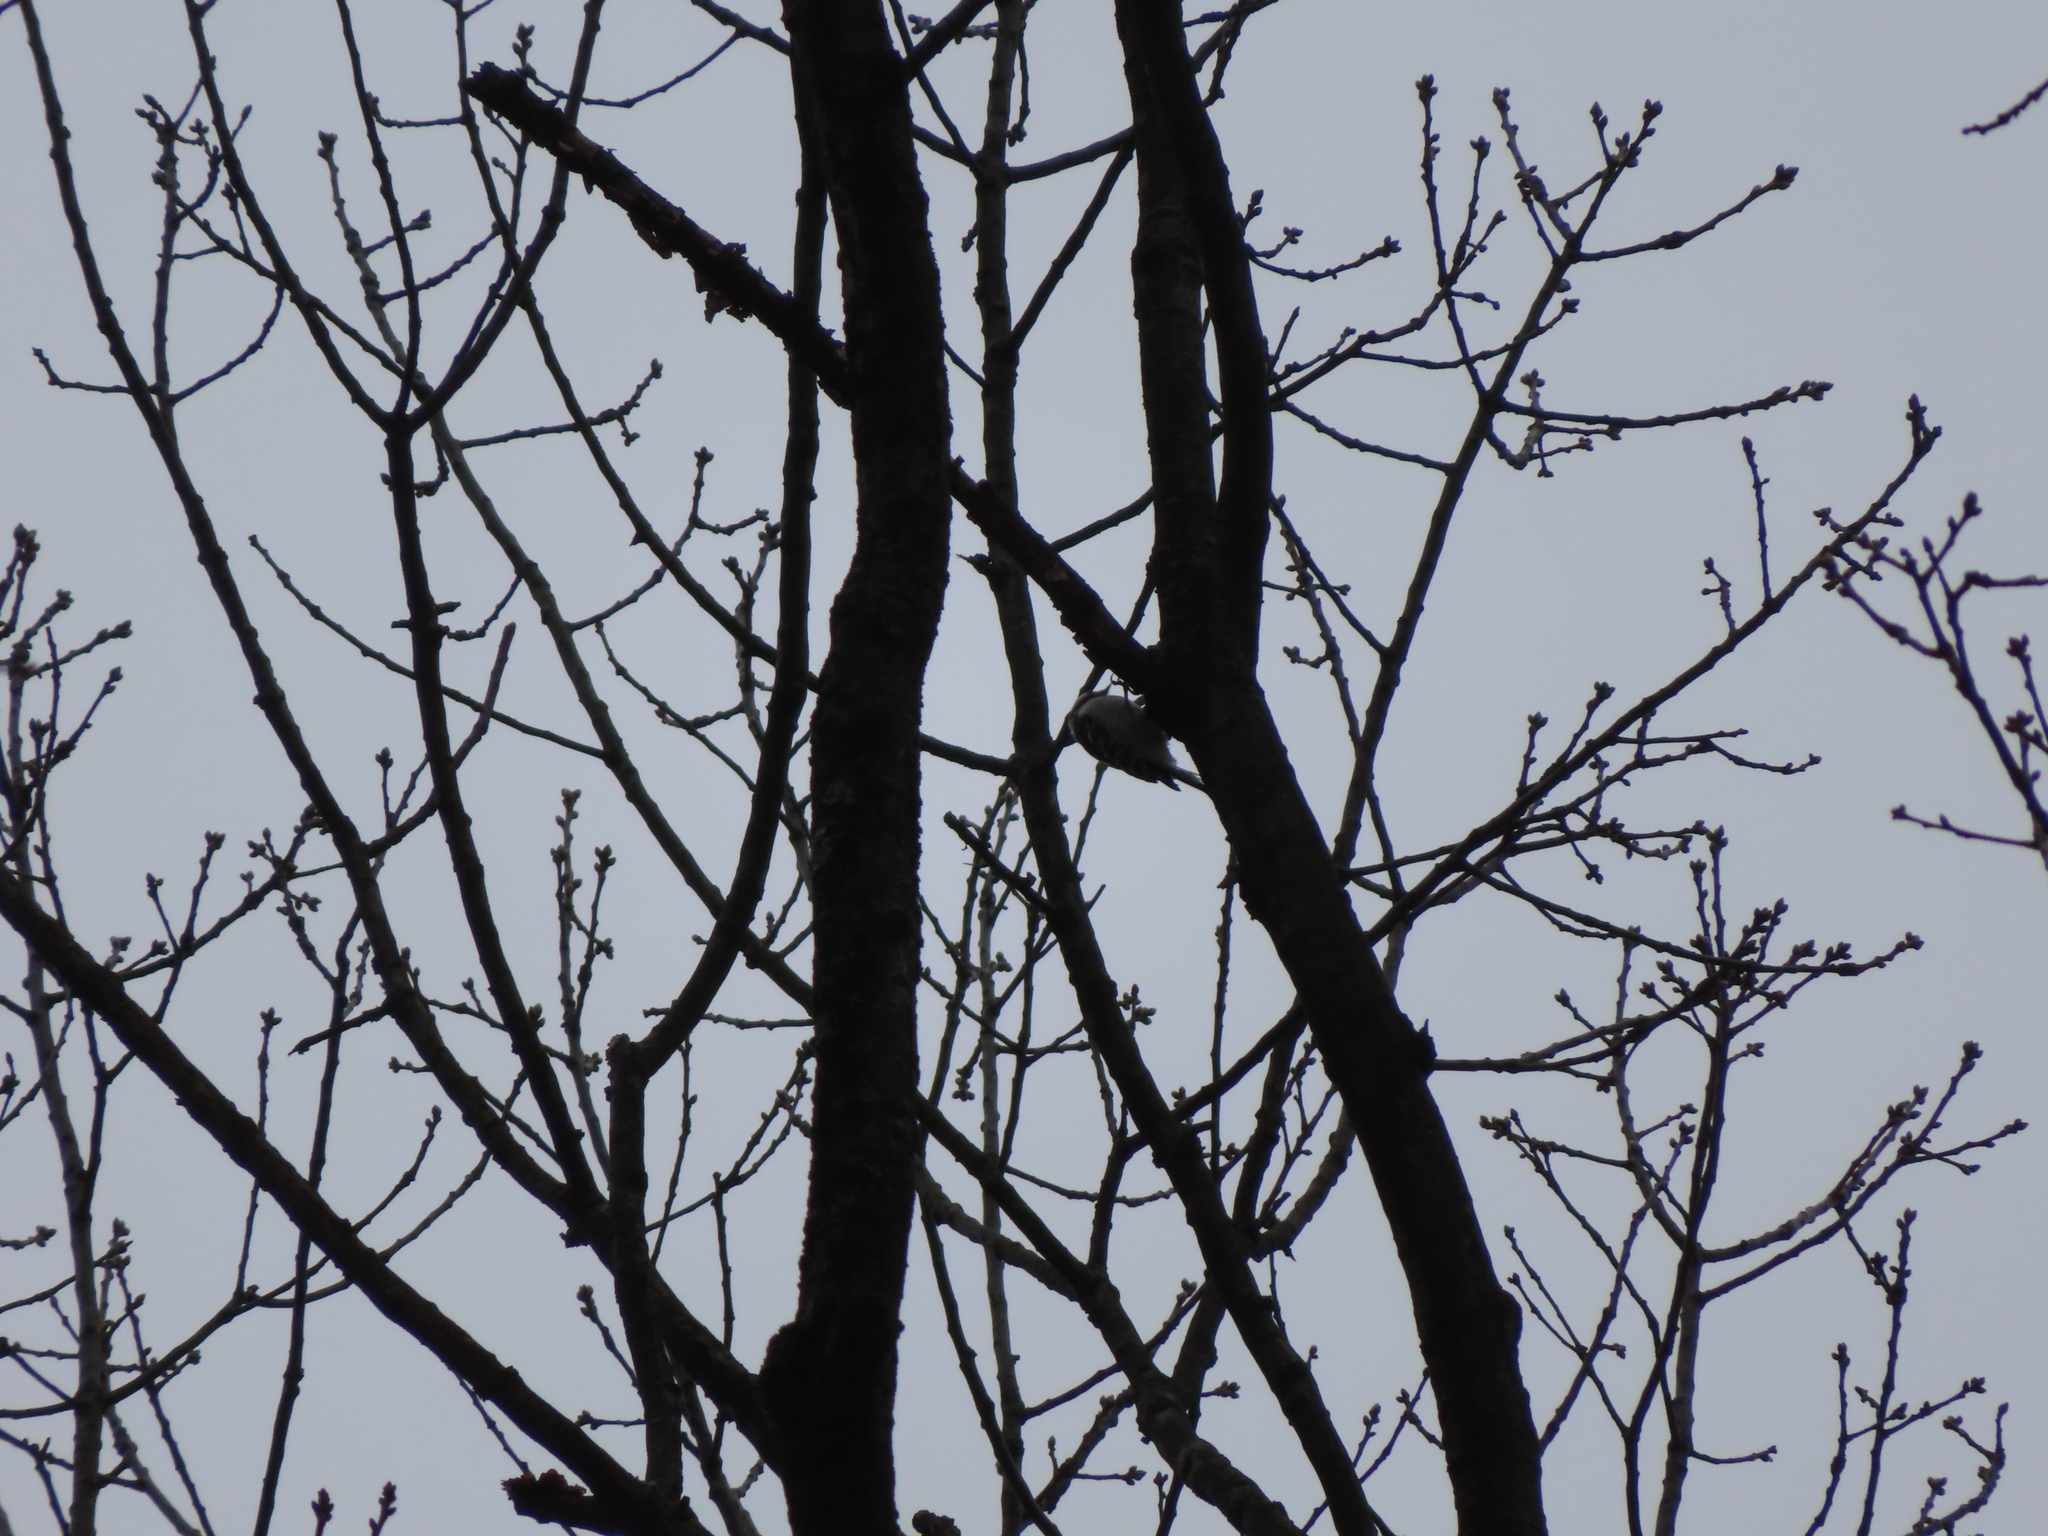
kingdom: Animalia
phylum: Chordata
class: Aves
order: Piciformes
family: Picidae
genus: Dryobates
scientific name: Dryobates pubescens
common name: Downy woodpecker
